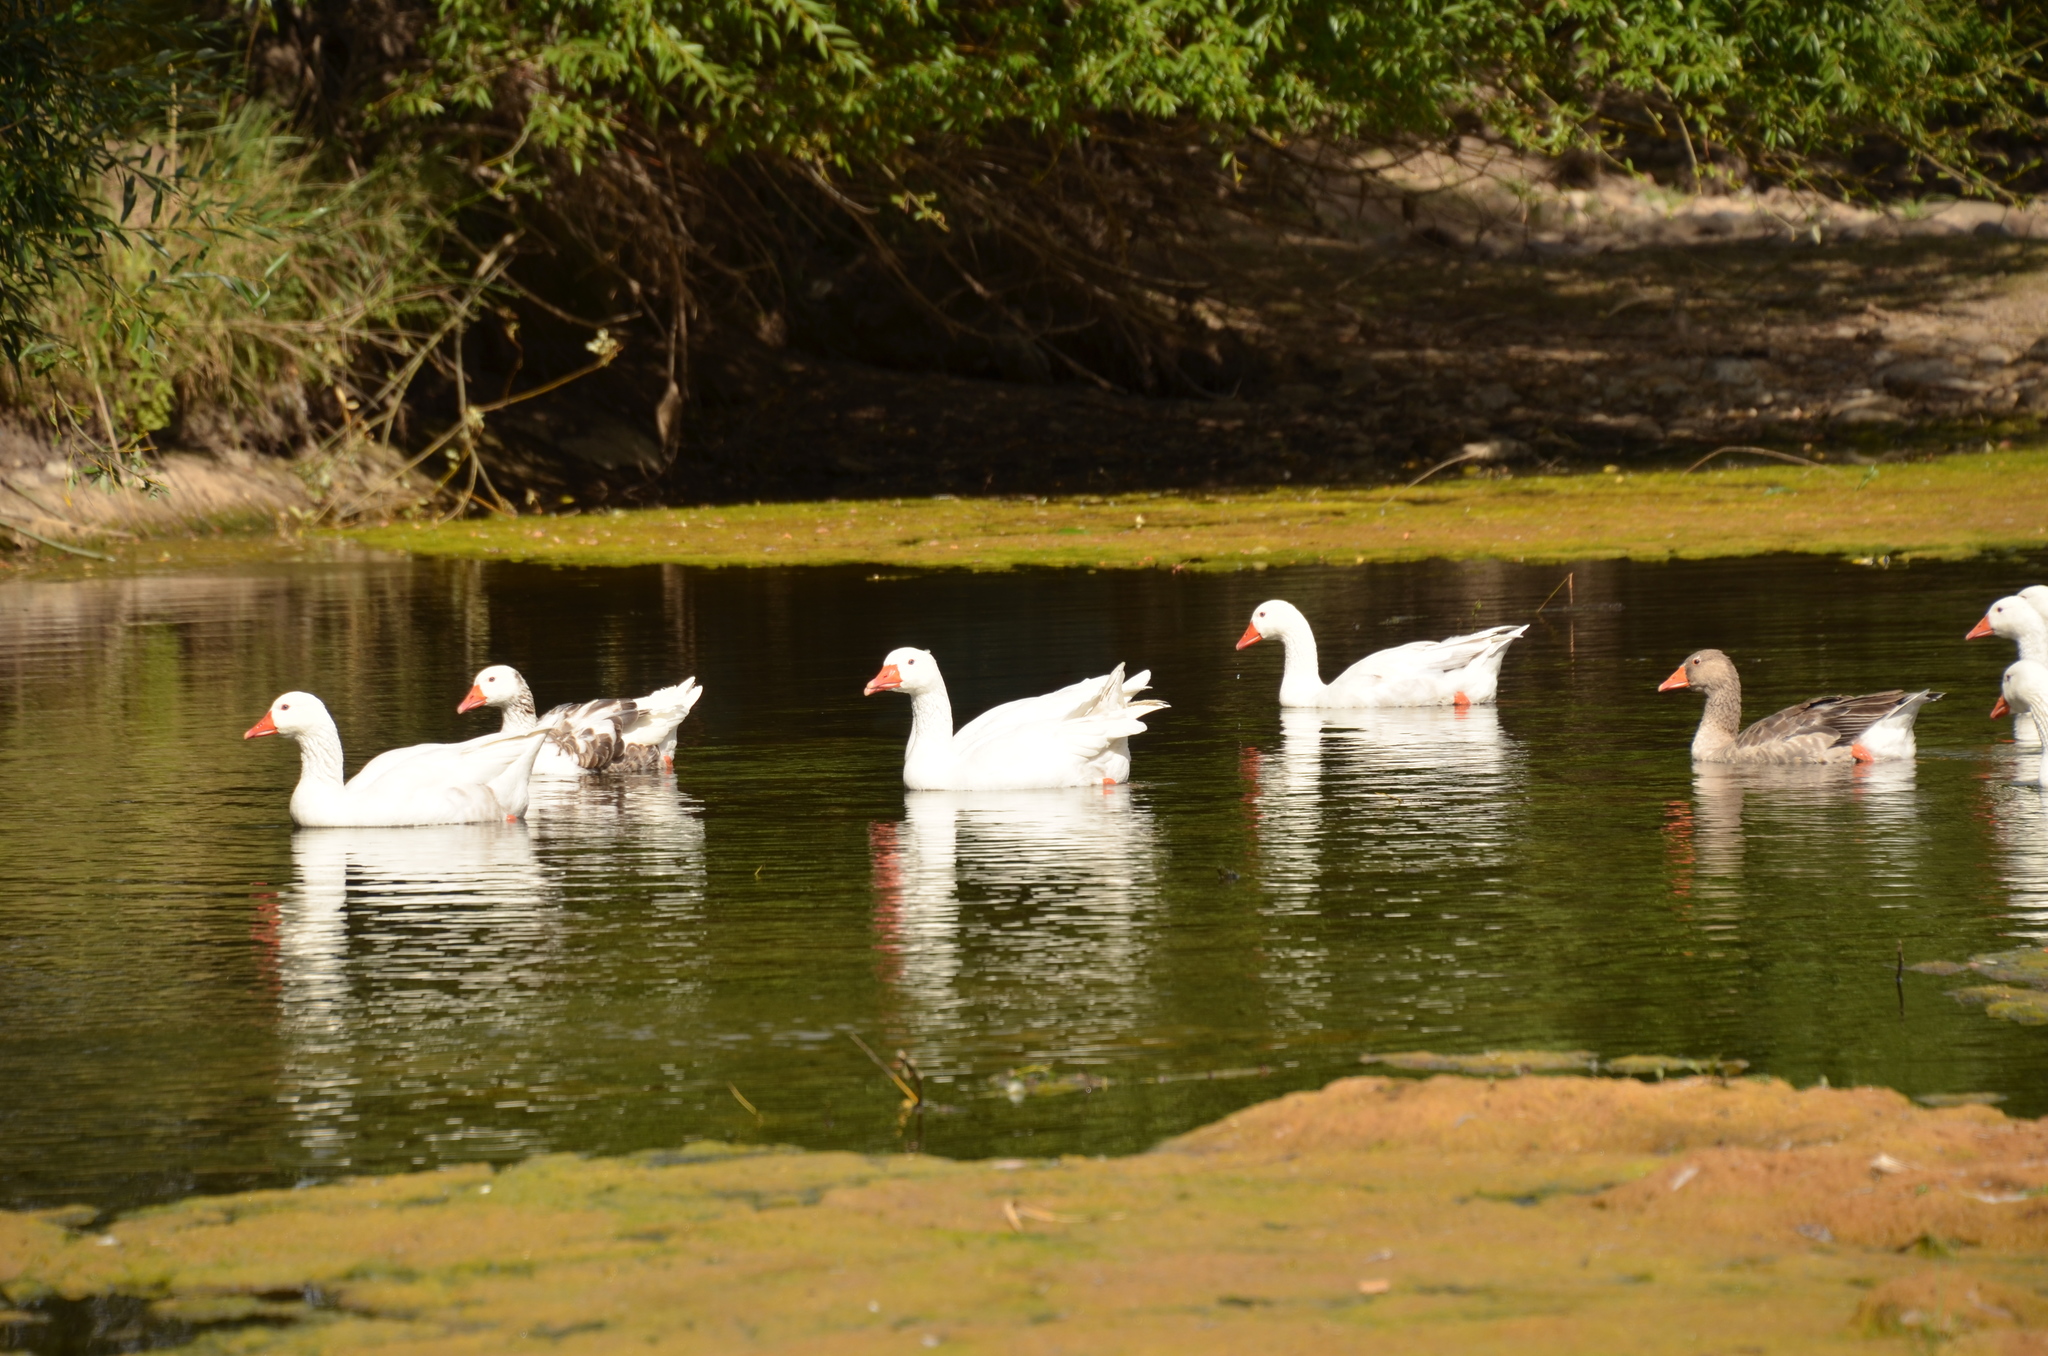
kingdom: Animalia
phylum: Chordata
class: Aves
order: Anseriformes
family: Anatidae
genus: Anser
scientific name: Anser anser
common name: Greylag goose
